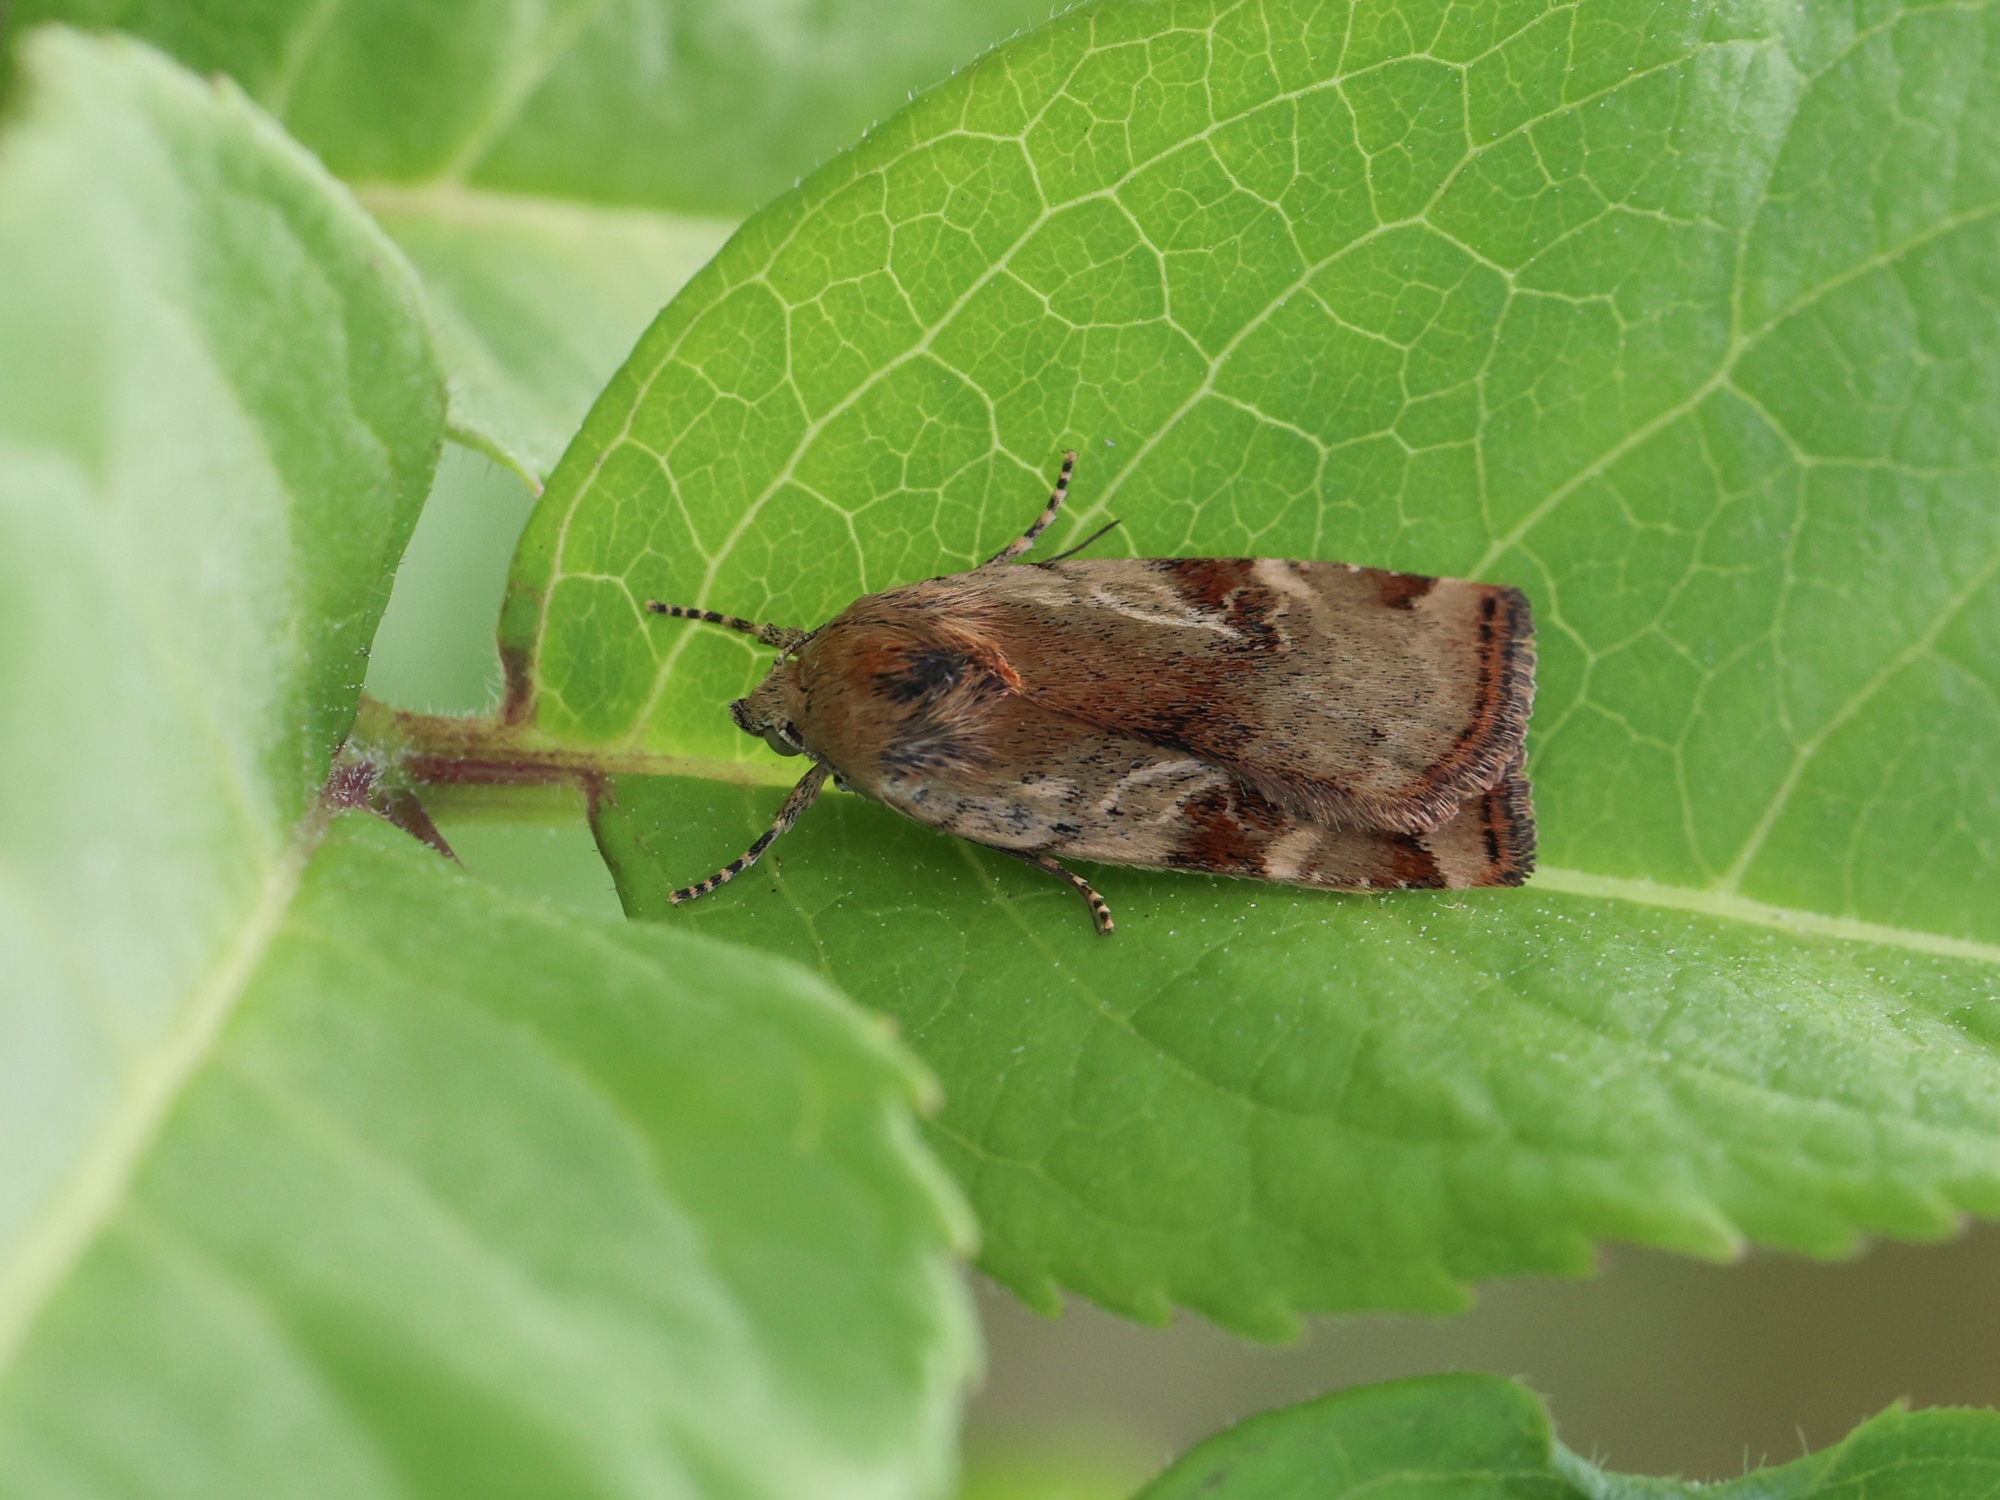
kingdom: Animalia
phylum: Arthropoda
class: Insecta
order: Lepidoptera
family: Noctuidae
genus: Cryptocala
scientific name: Cryptocala chardinyi
